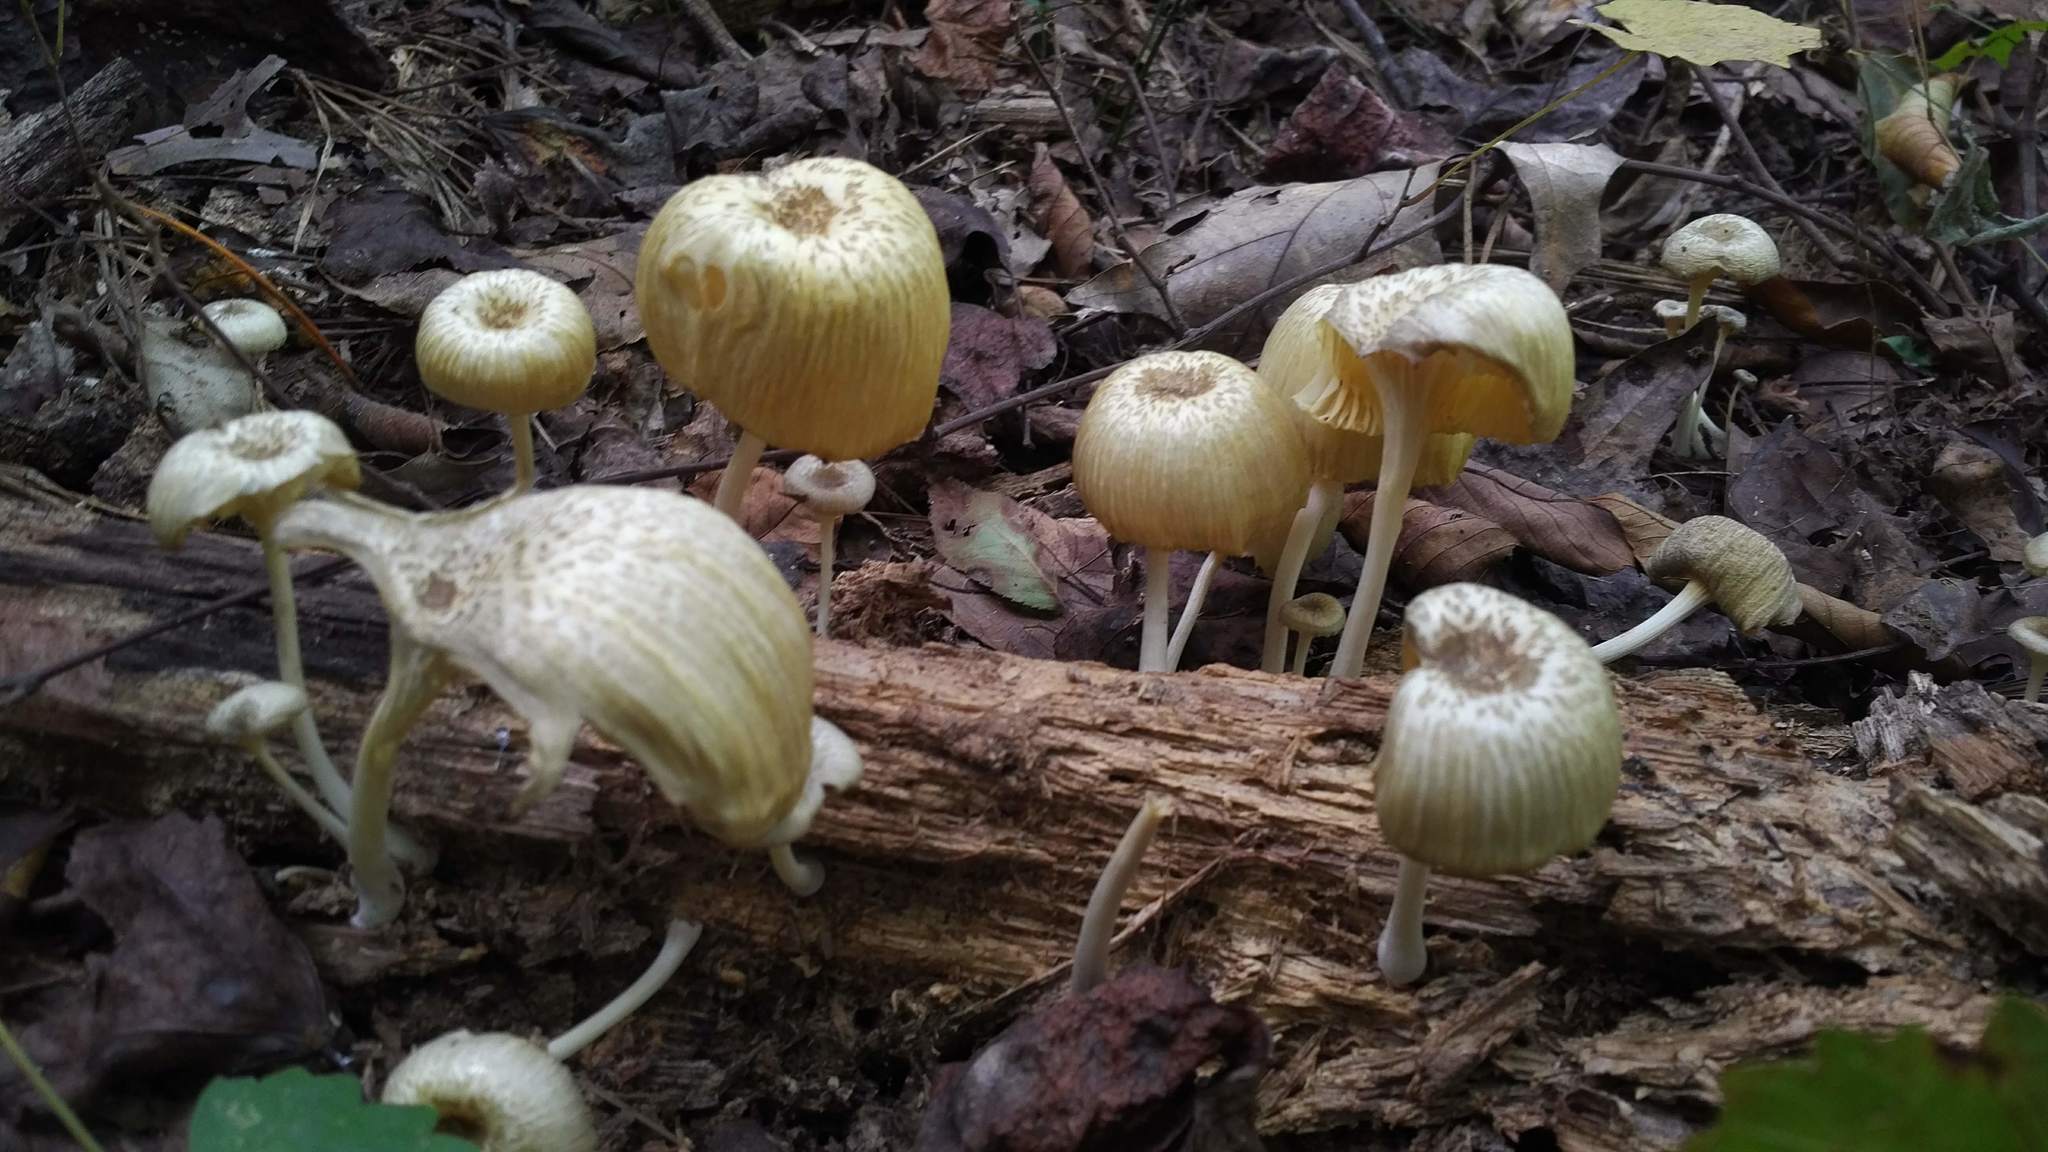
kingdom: Fungi
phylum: Basidiomycota
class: Agaricomycetes
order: Agaricales
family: Marasmiaceae
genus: Gerronema
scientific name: Gerronema strombodes
